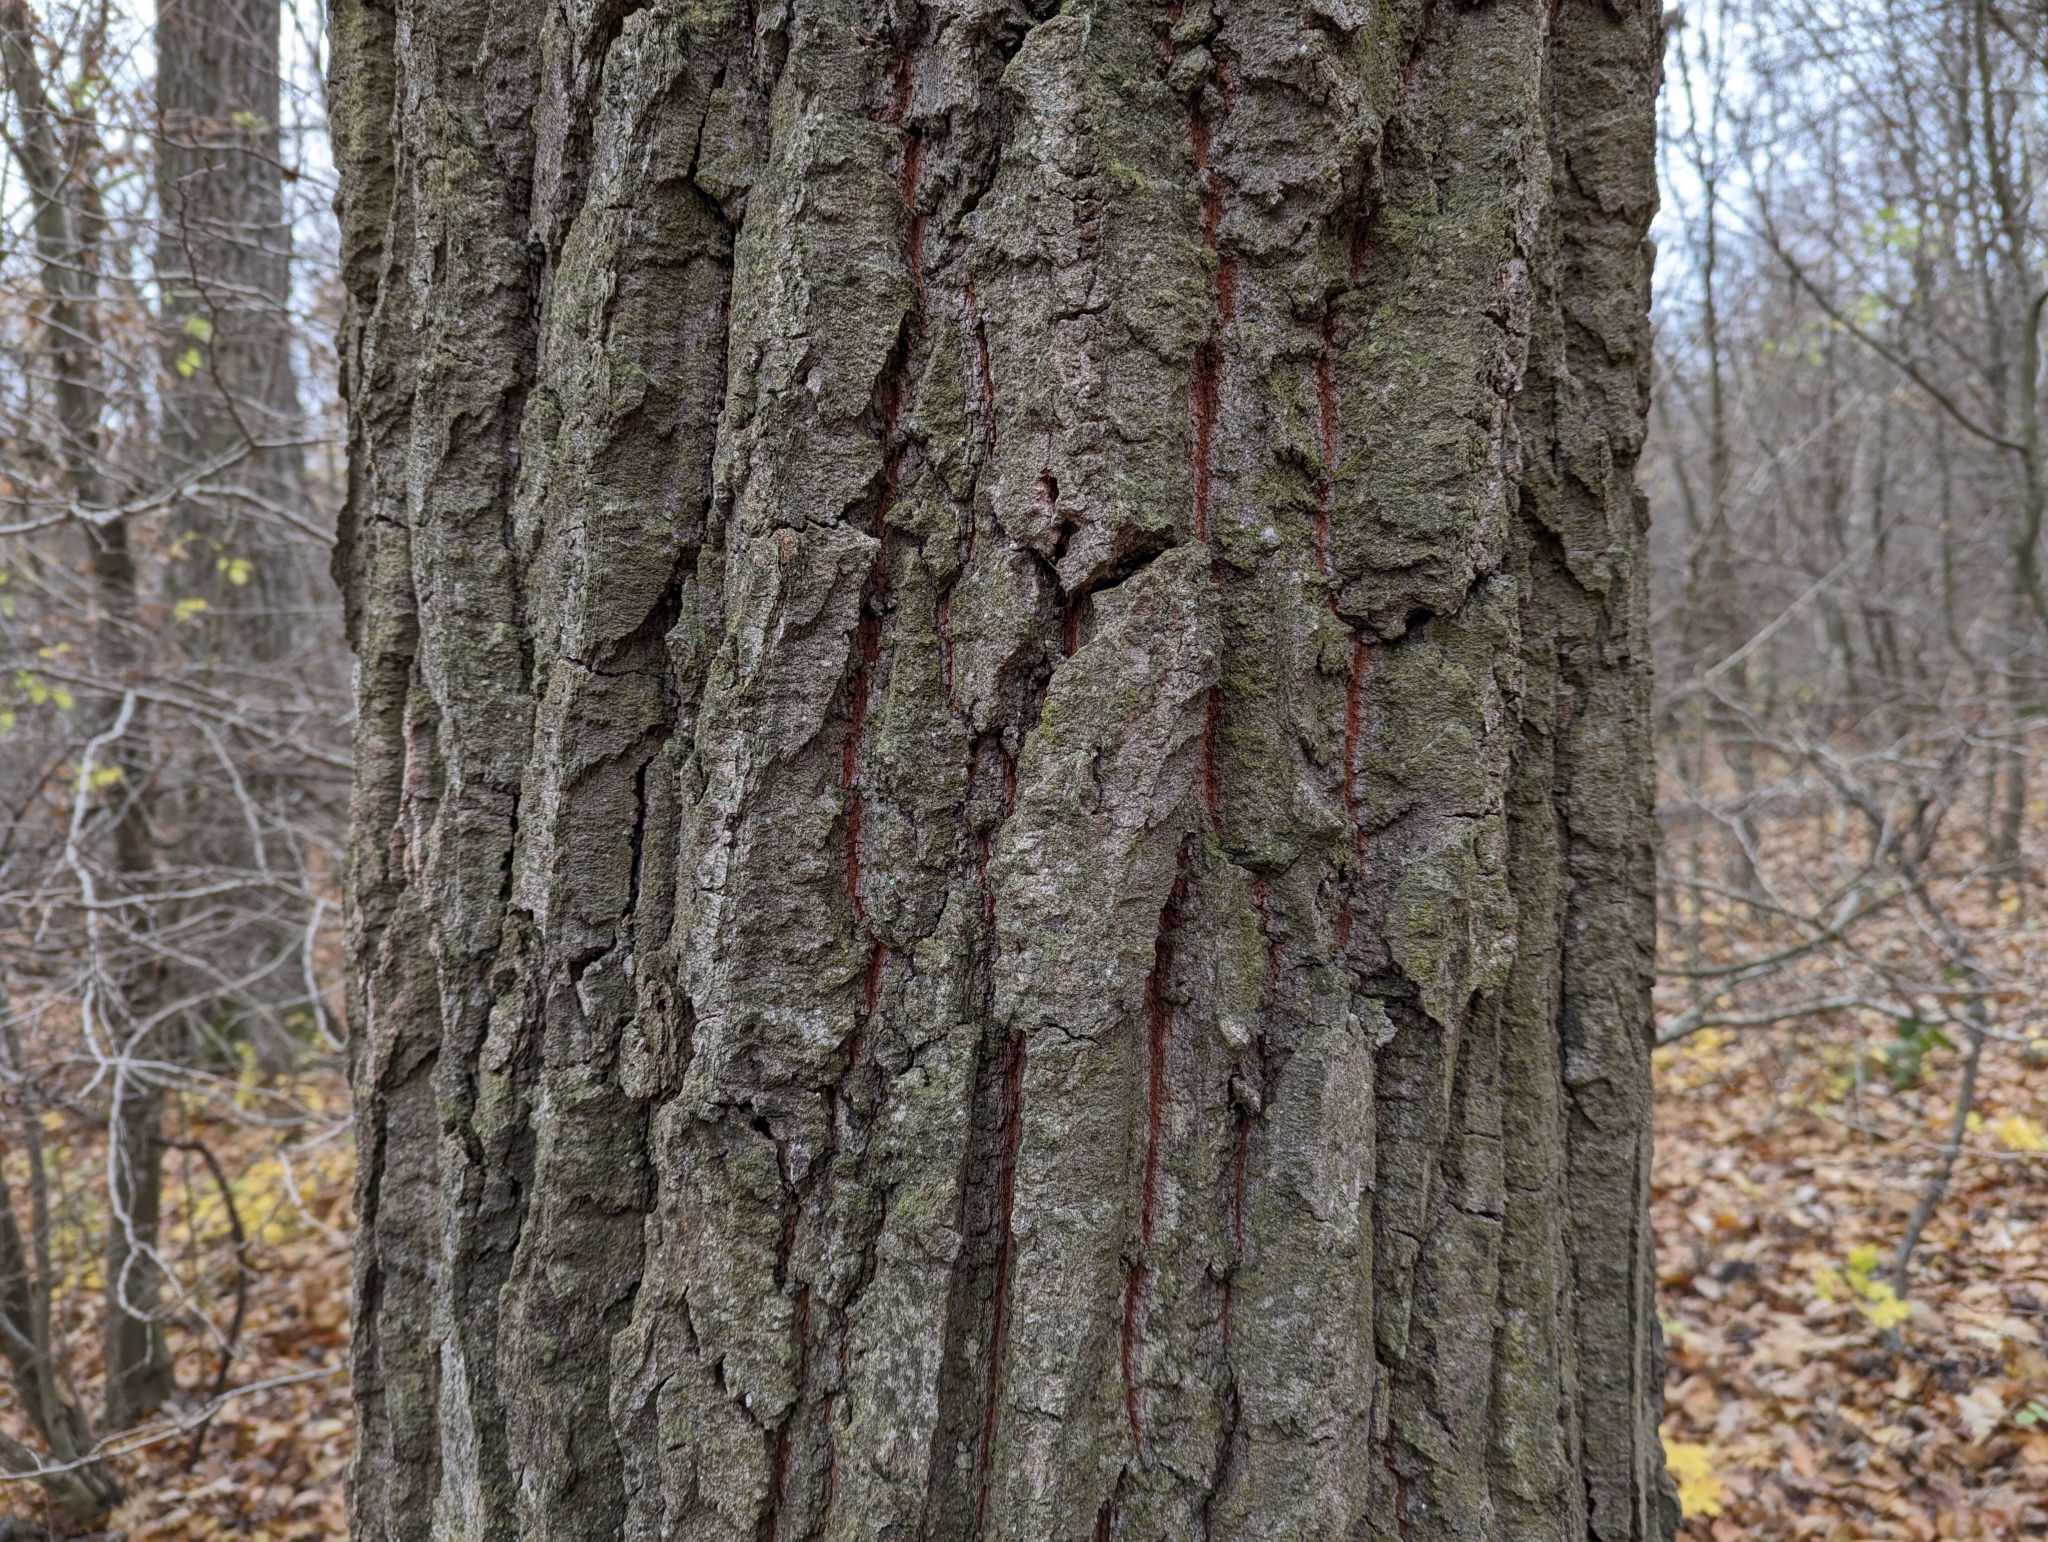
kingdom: Plantae
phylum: Tracheophyta
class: Magnoliopsida
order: Fagales
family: Fagaceae
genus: Quercus
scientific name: Quercus cerris
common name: Turkey oak
